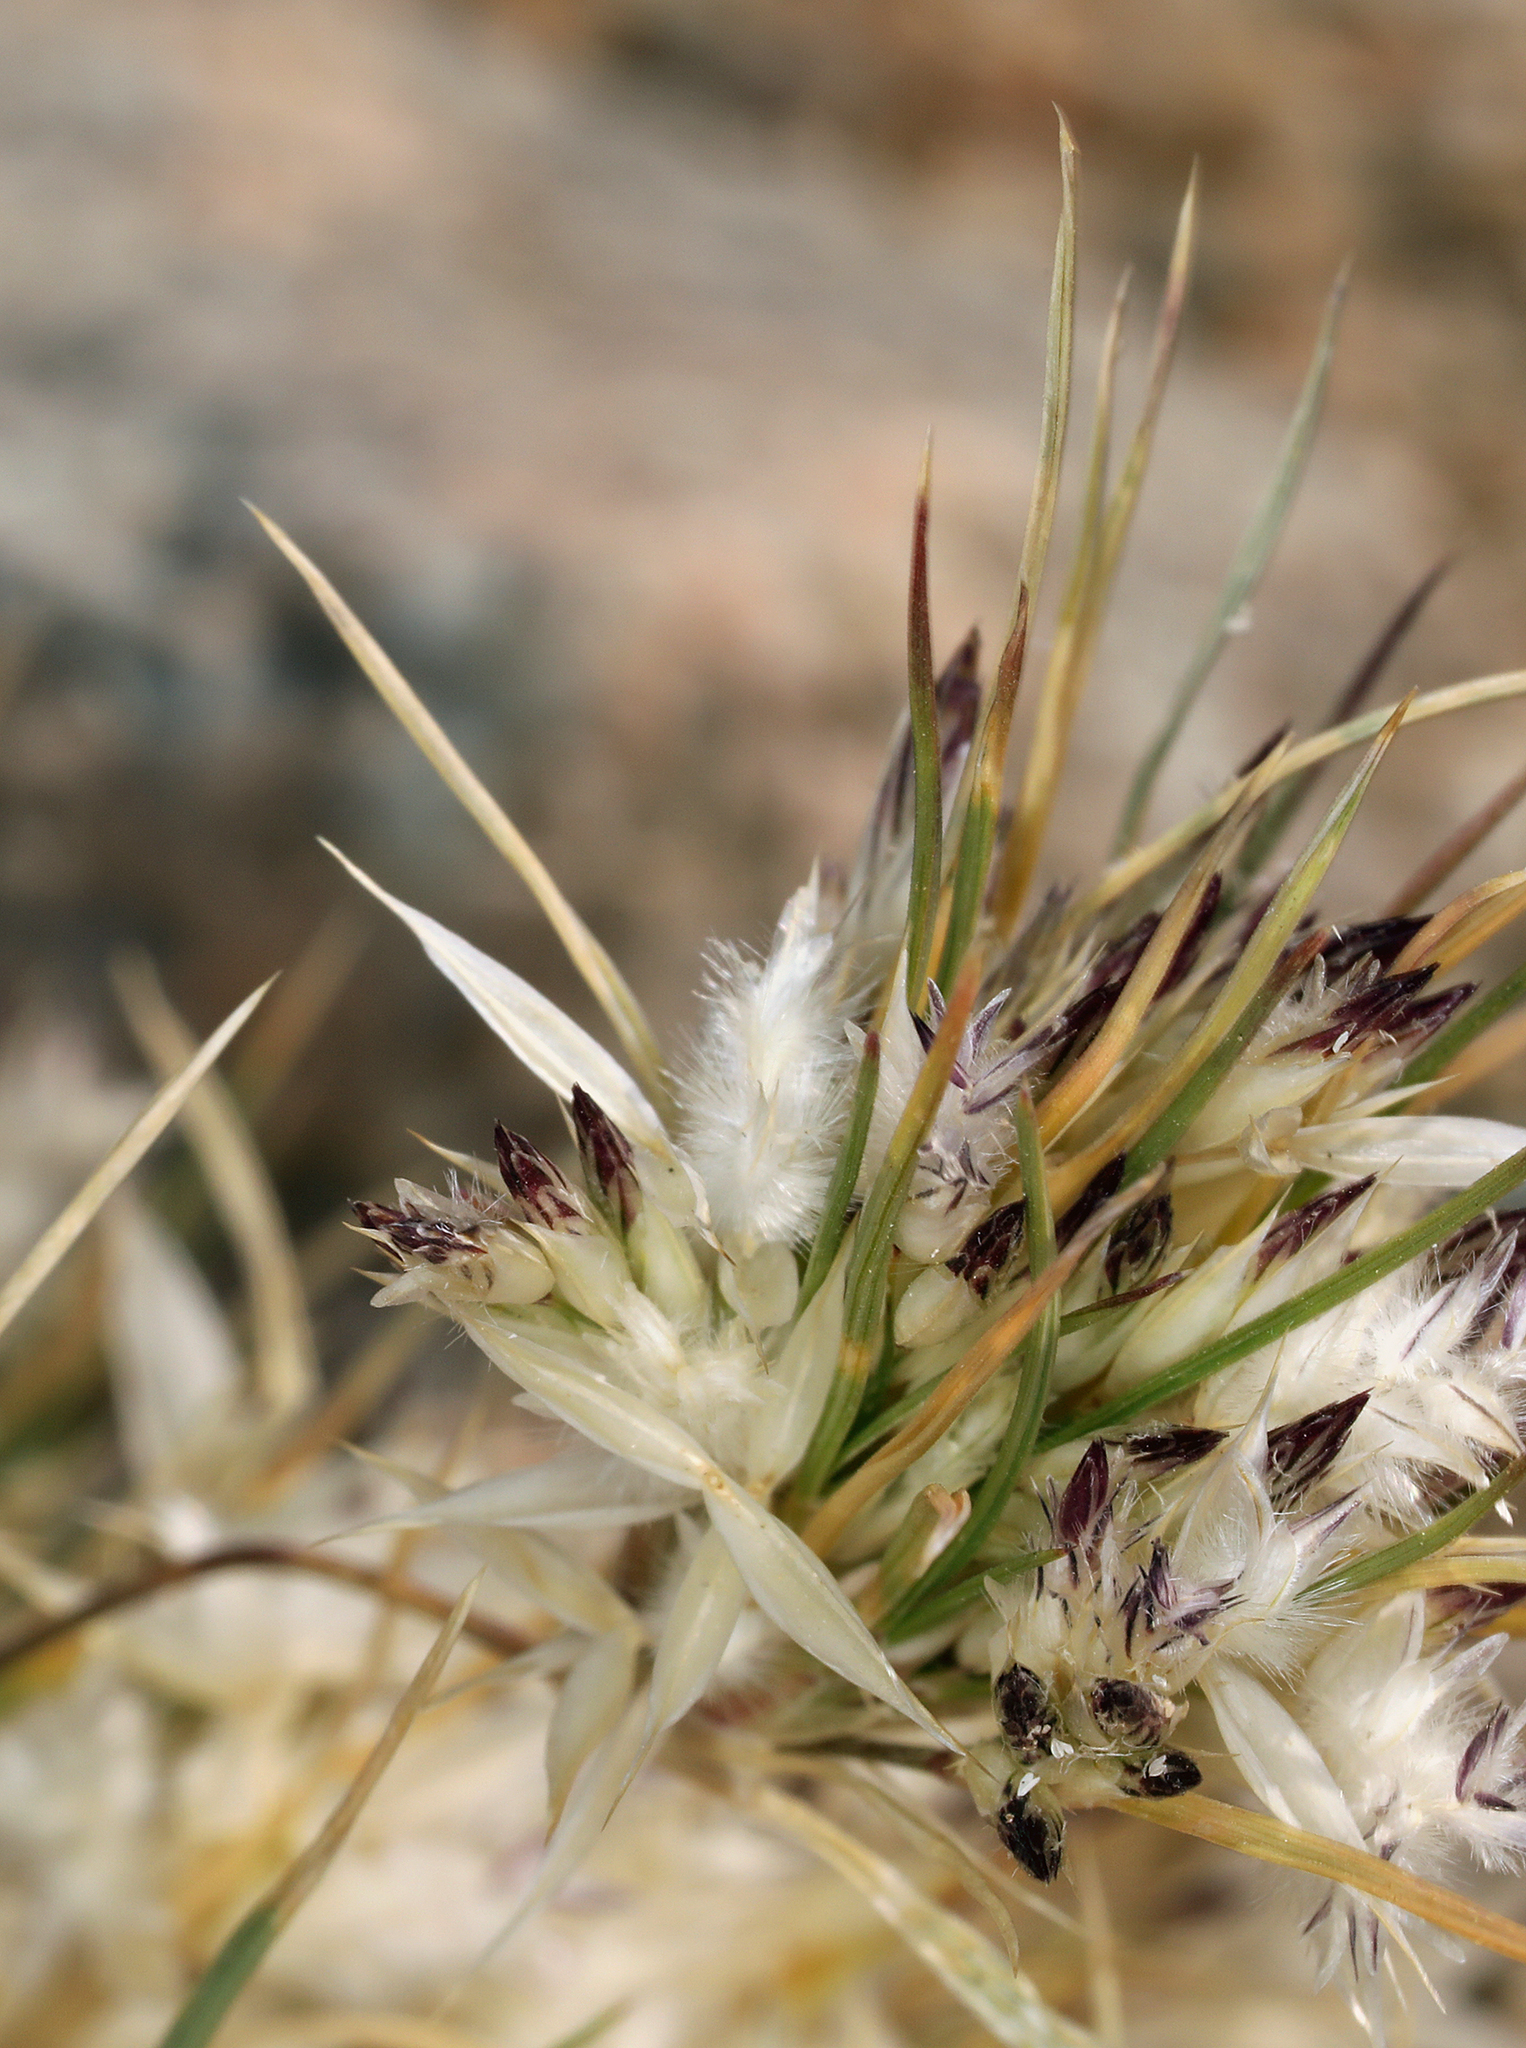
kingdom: Plantae
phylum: Tracheophyta
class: Liliopsida
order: Poales
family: Poaceae
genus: Dasyochloa
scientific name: Dasyochloa pulchella
